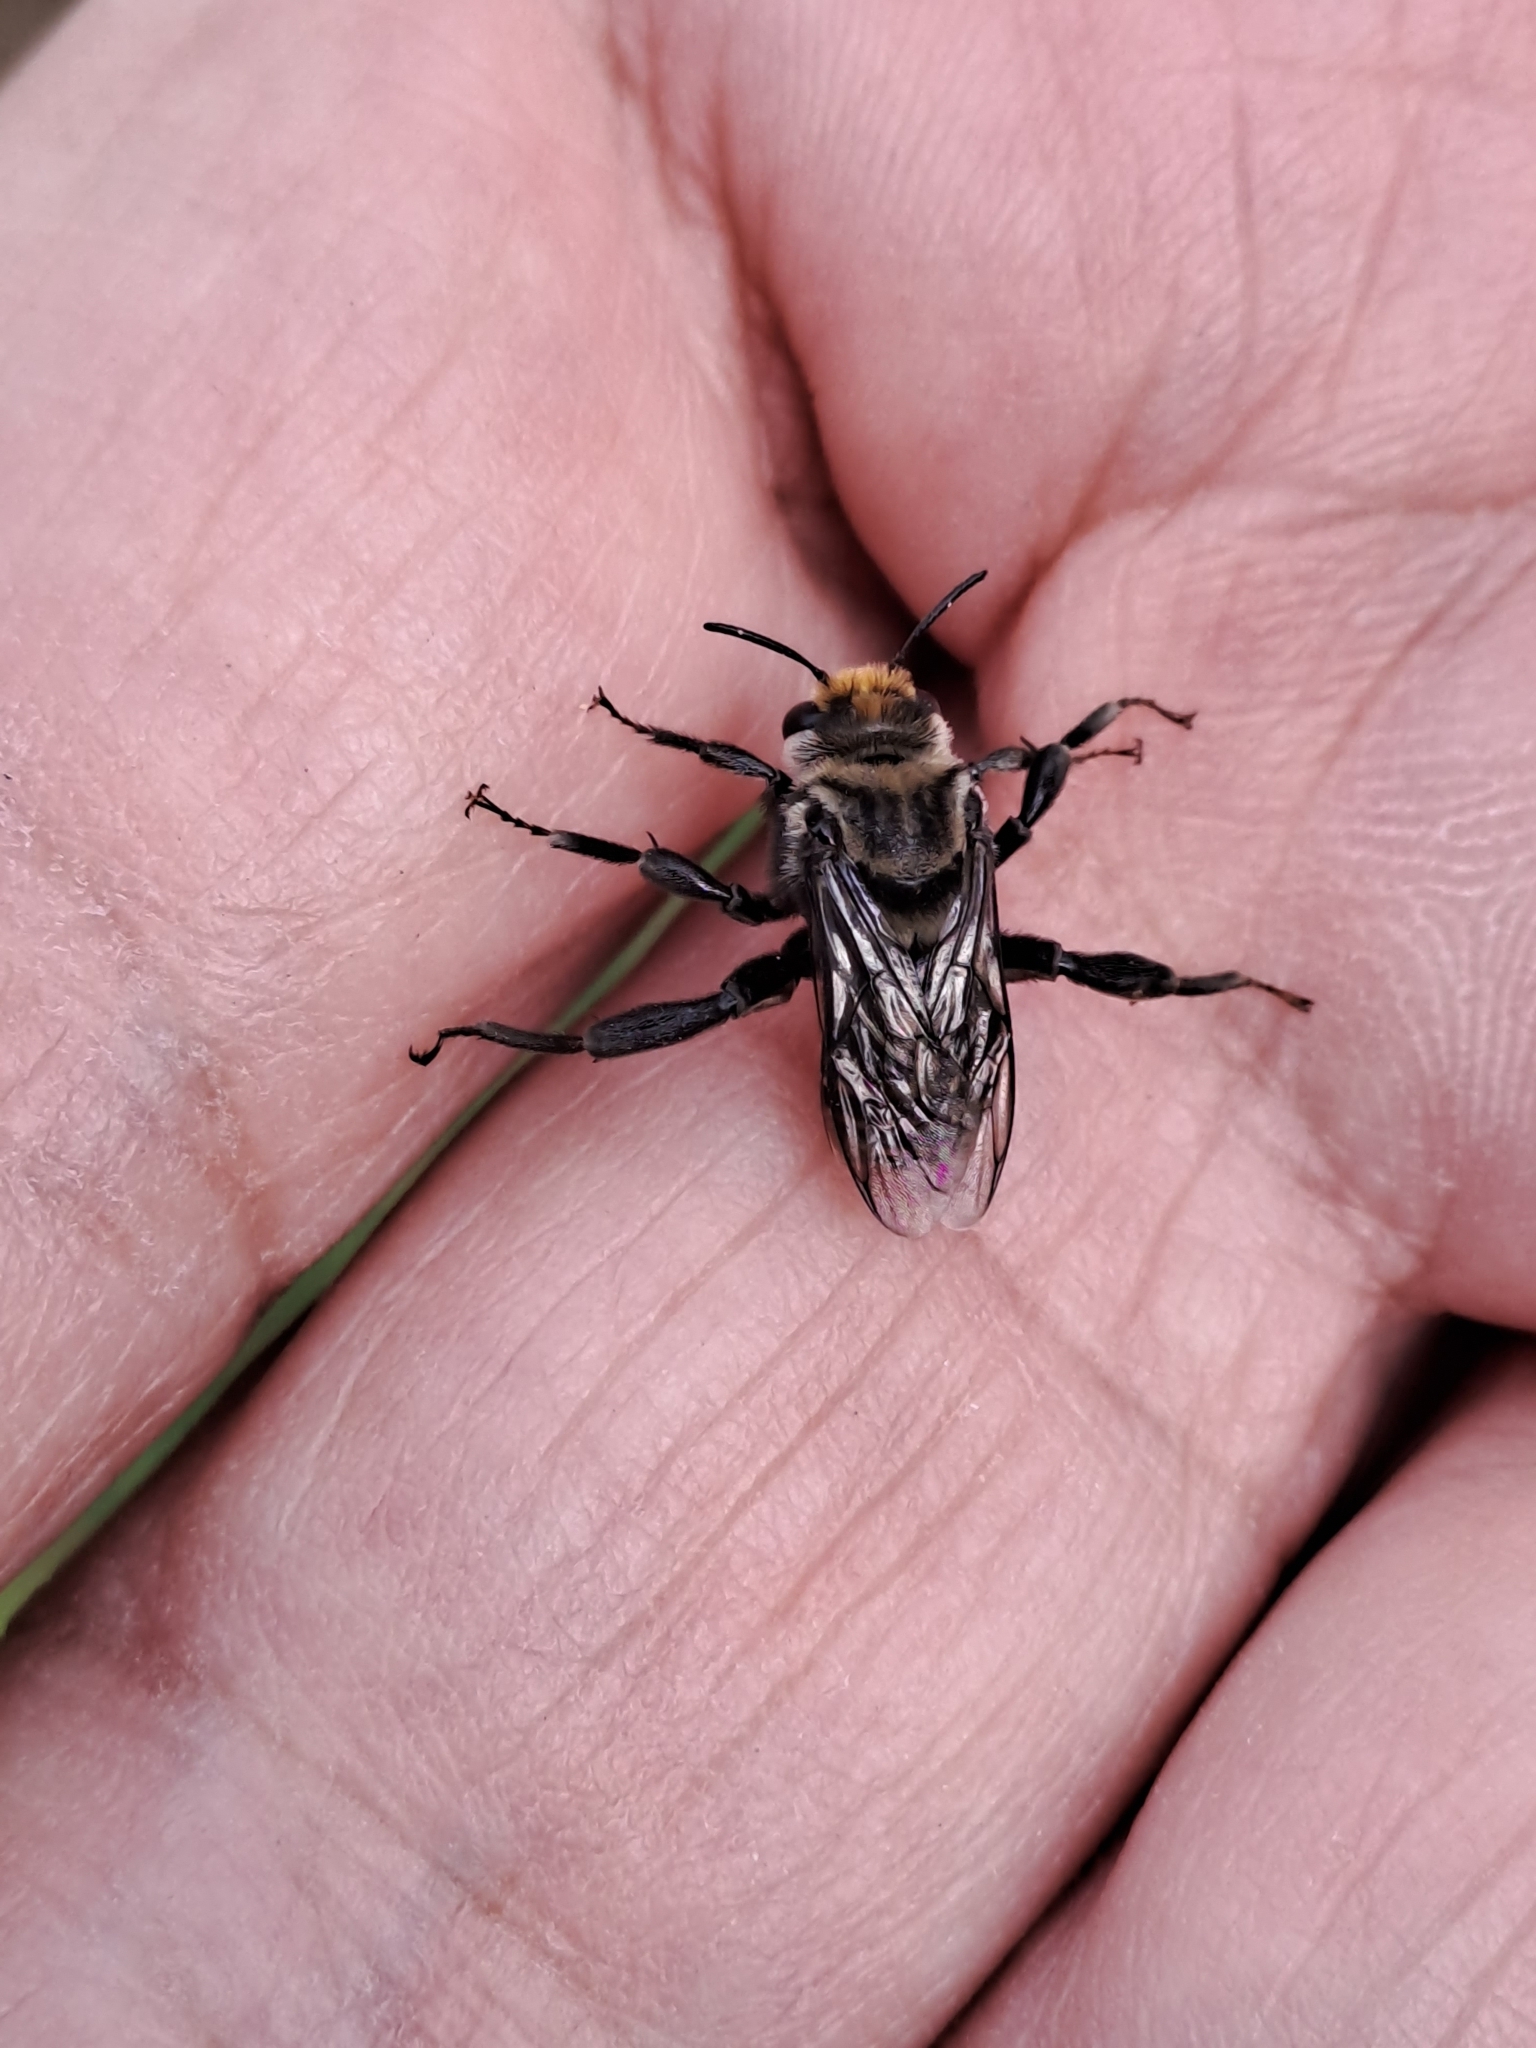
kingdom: Animalia
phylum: Arthropoda
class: Insecta
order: Hymenoptera
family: Apidae
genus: Melitoma
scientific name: Melitoma
